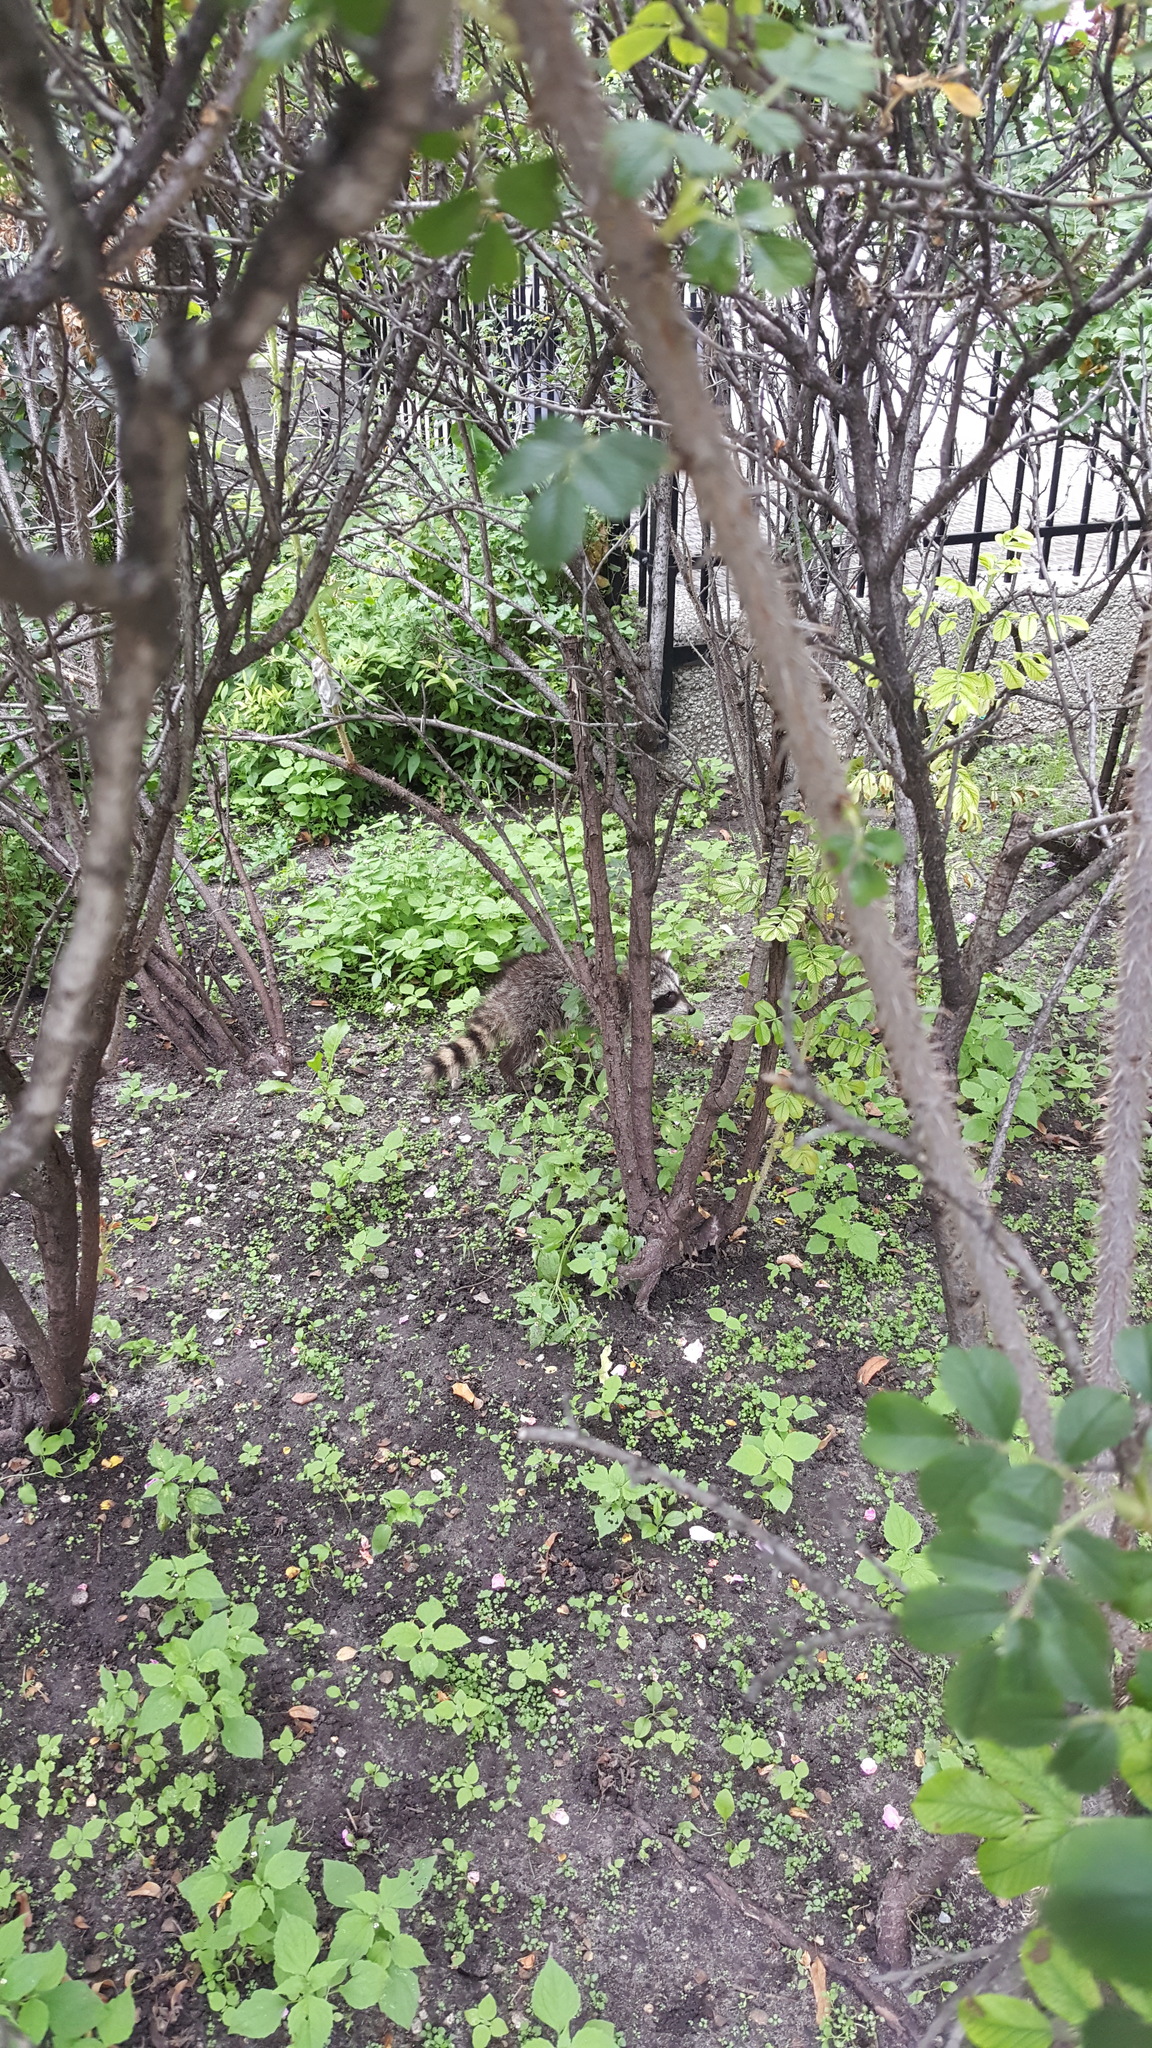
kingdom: Animalia
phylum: Chordata
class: Mammalia
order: Carnivora
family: Procyonidae
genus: Procyon
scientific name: Procyon lotor
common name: Raccoon
